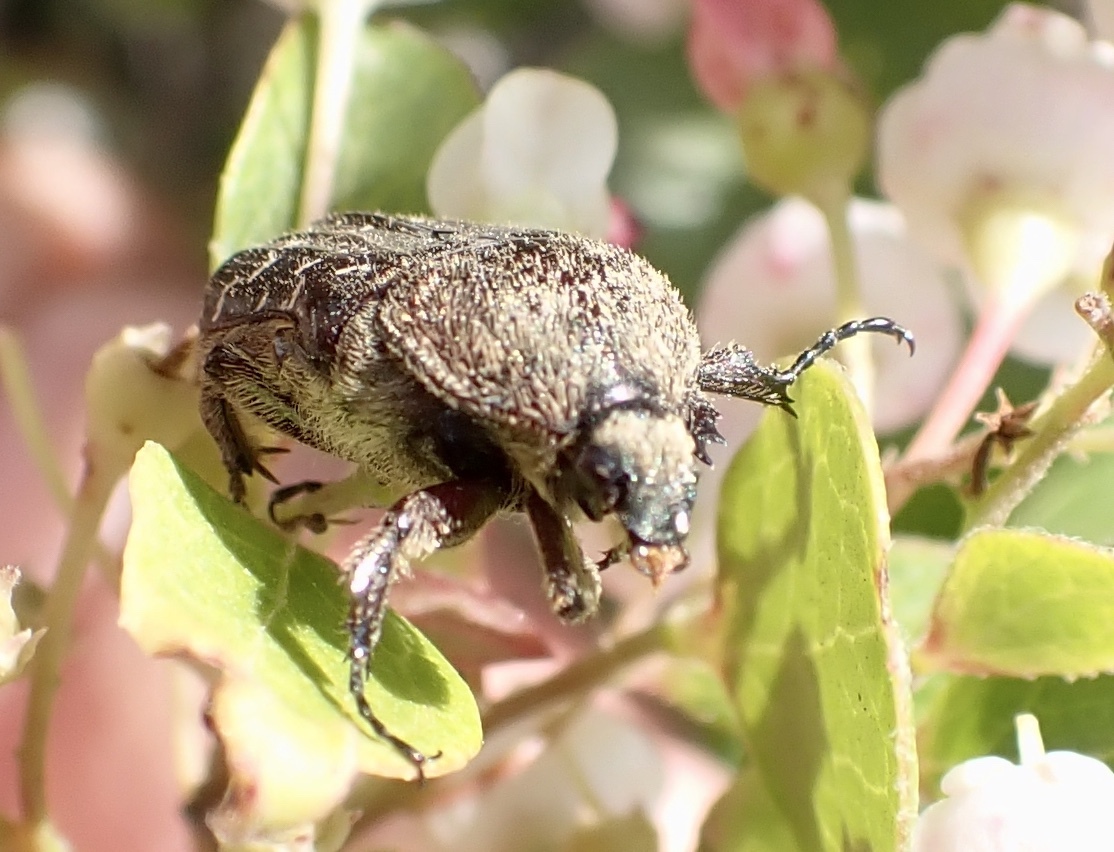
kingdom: Animalia
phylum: Arthropoda
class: Insecta
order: Coleoptera
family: Scarabaeidae
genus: Euphoria
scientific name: Euphoria sepulcralis
